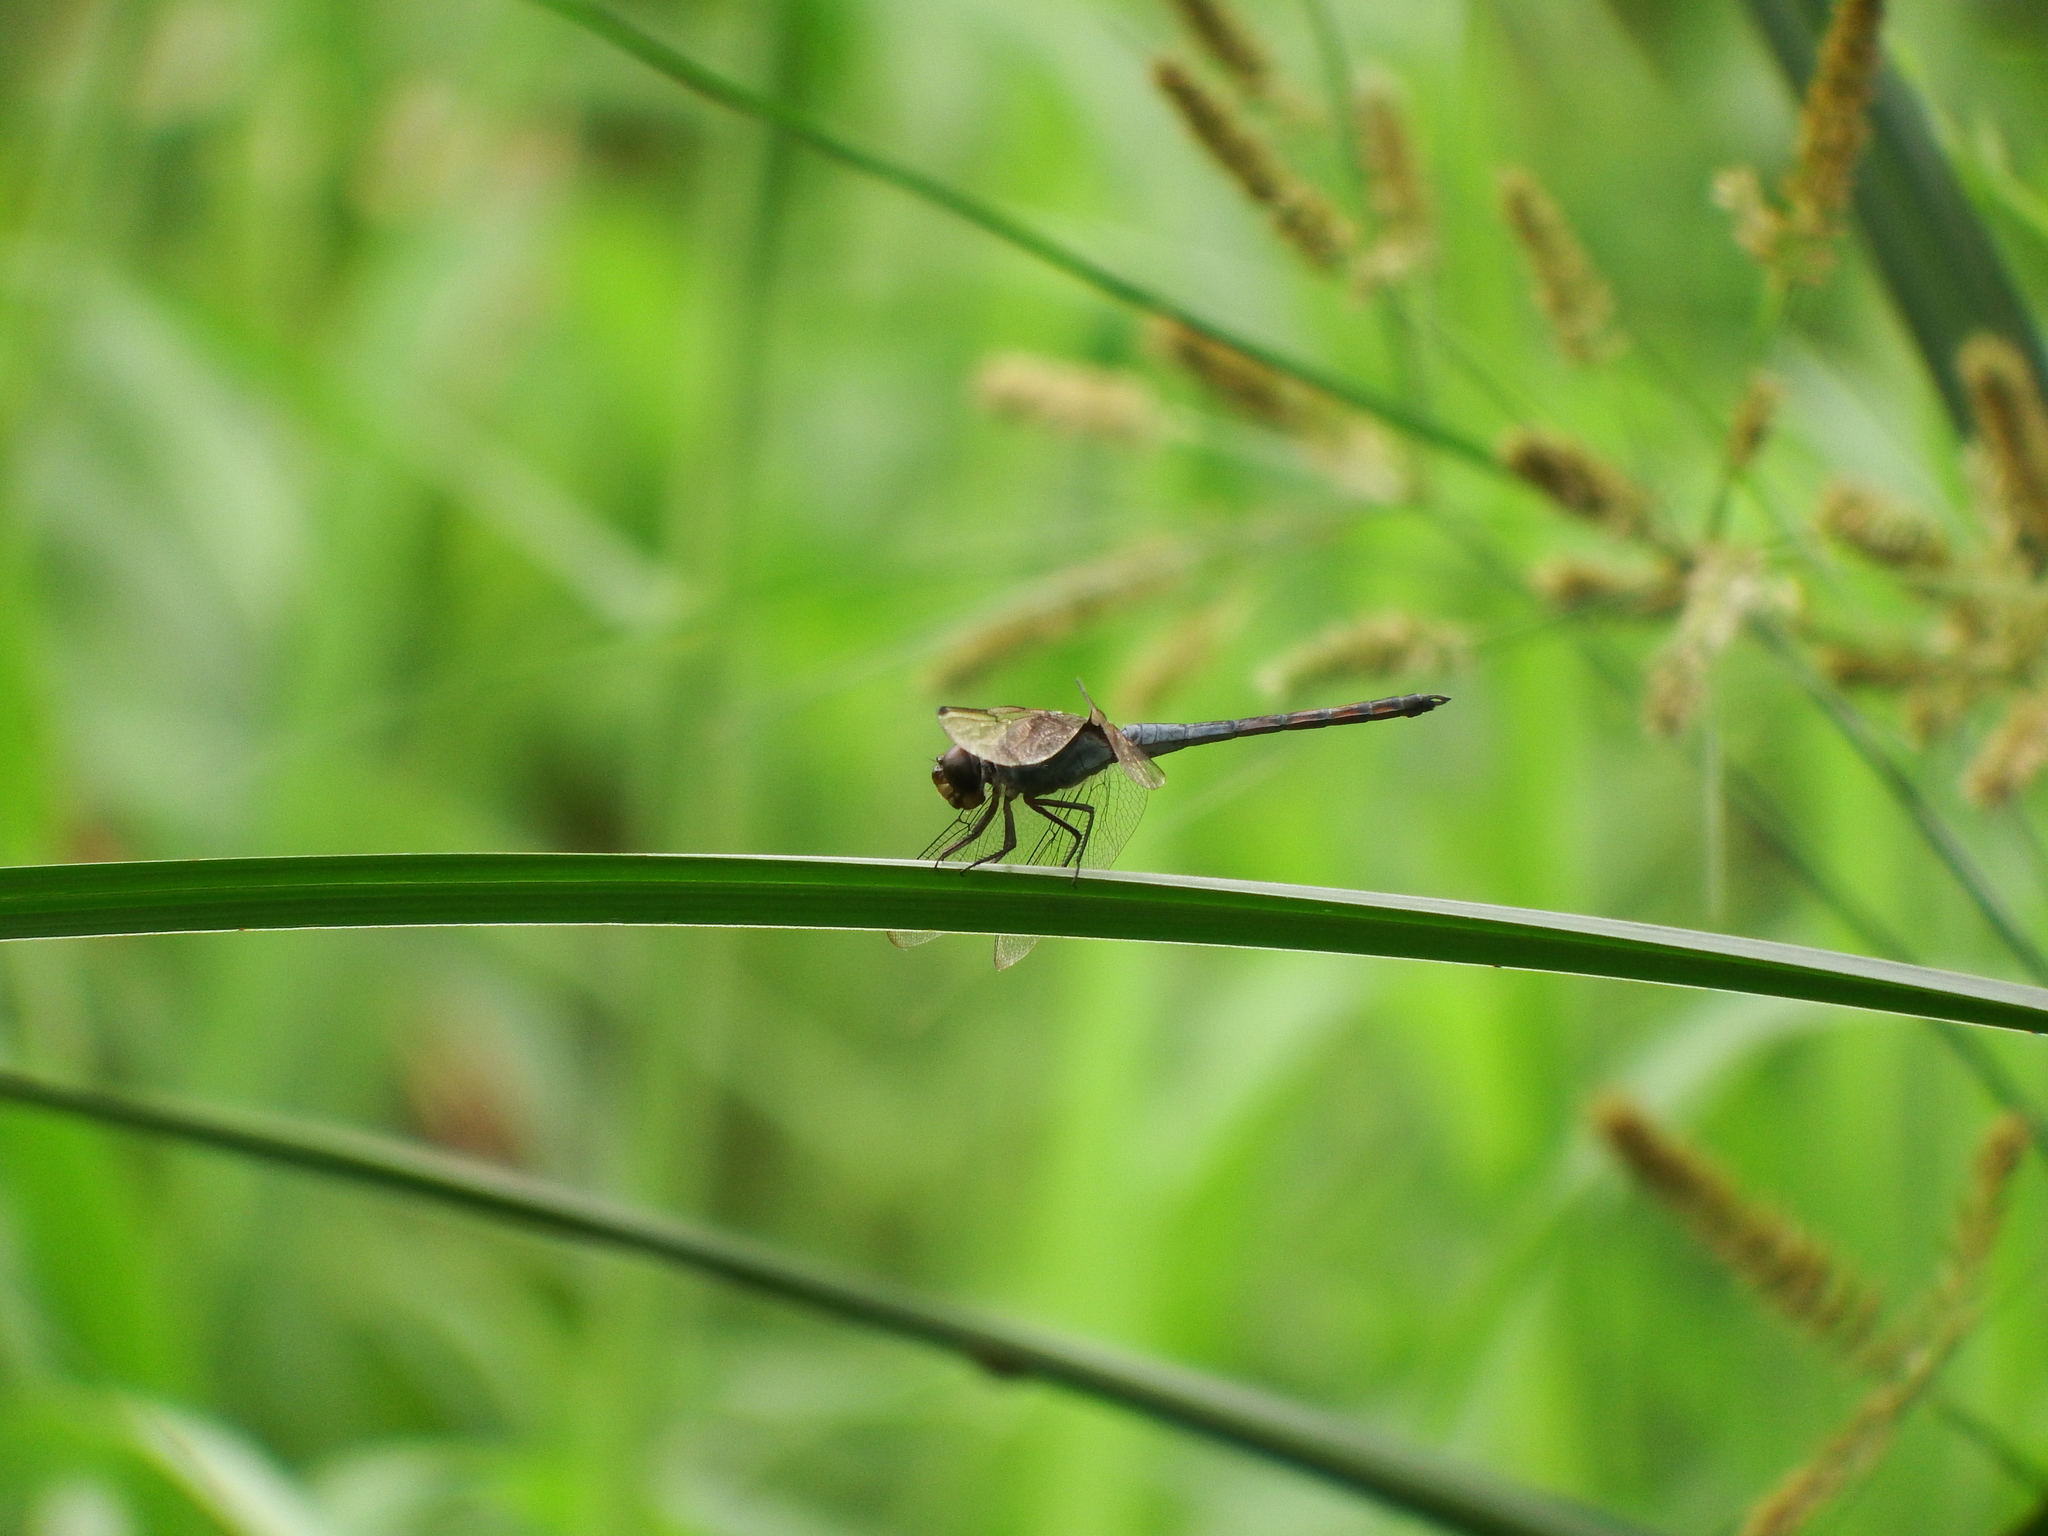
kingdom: Animalia
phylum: Arthropoda
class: Insecta
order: Odonata
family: Libellulidae
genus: Potamarcha
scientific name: Potamarcha congener
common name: Blue chaser
